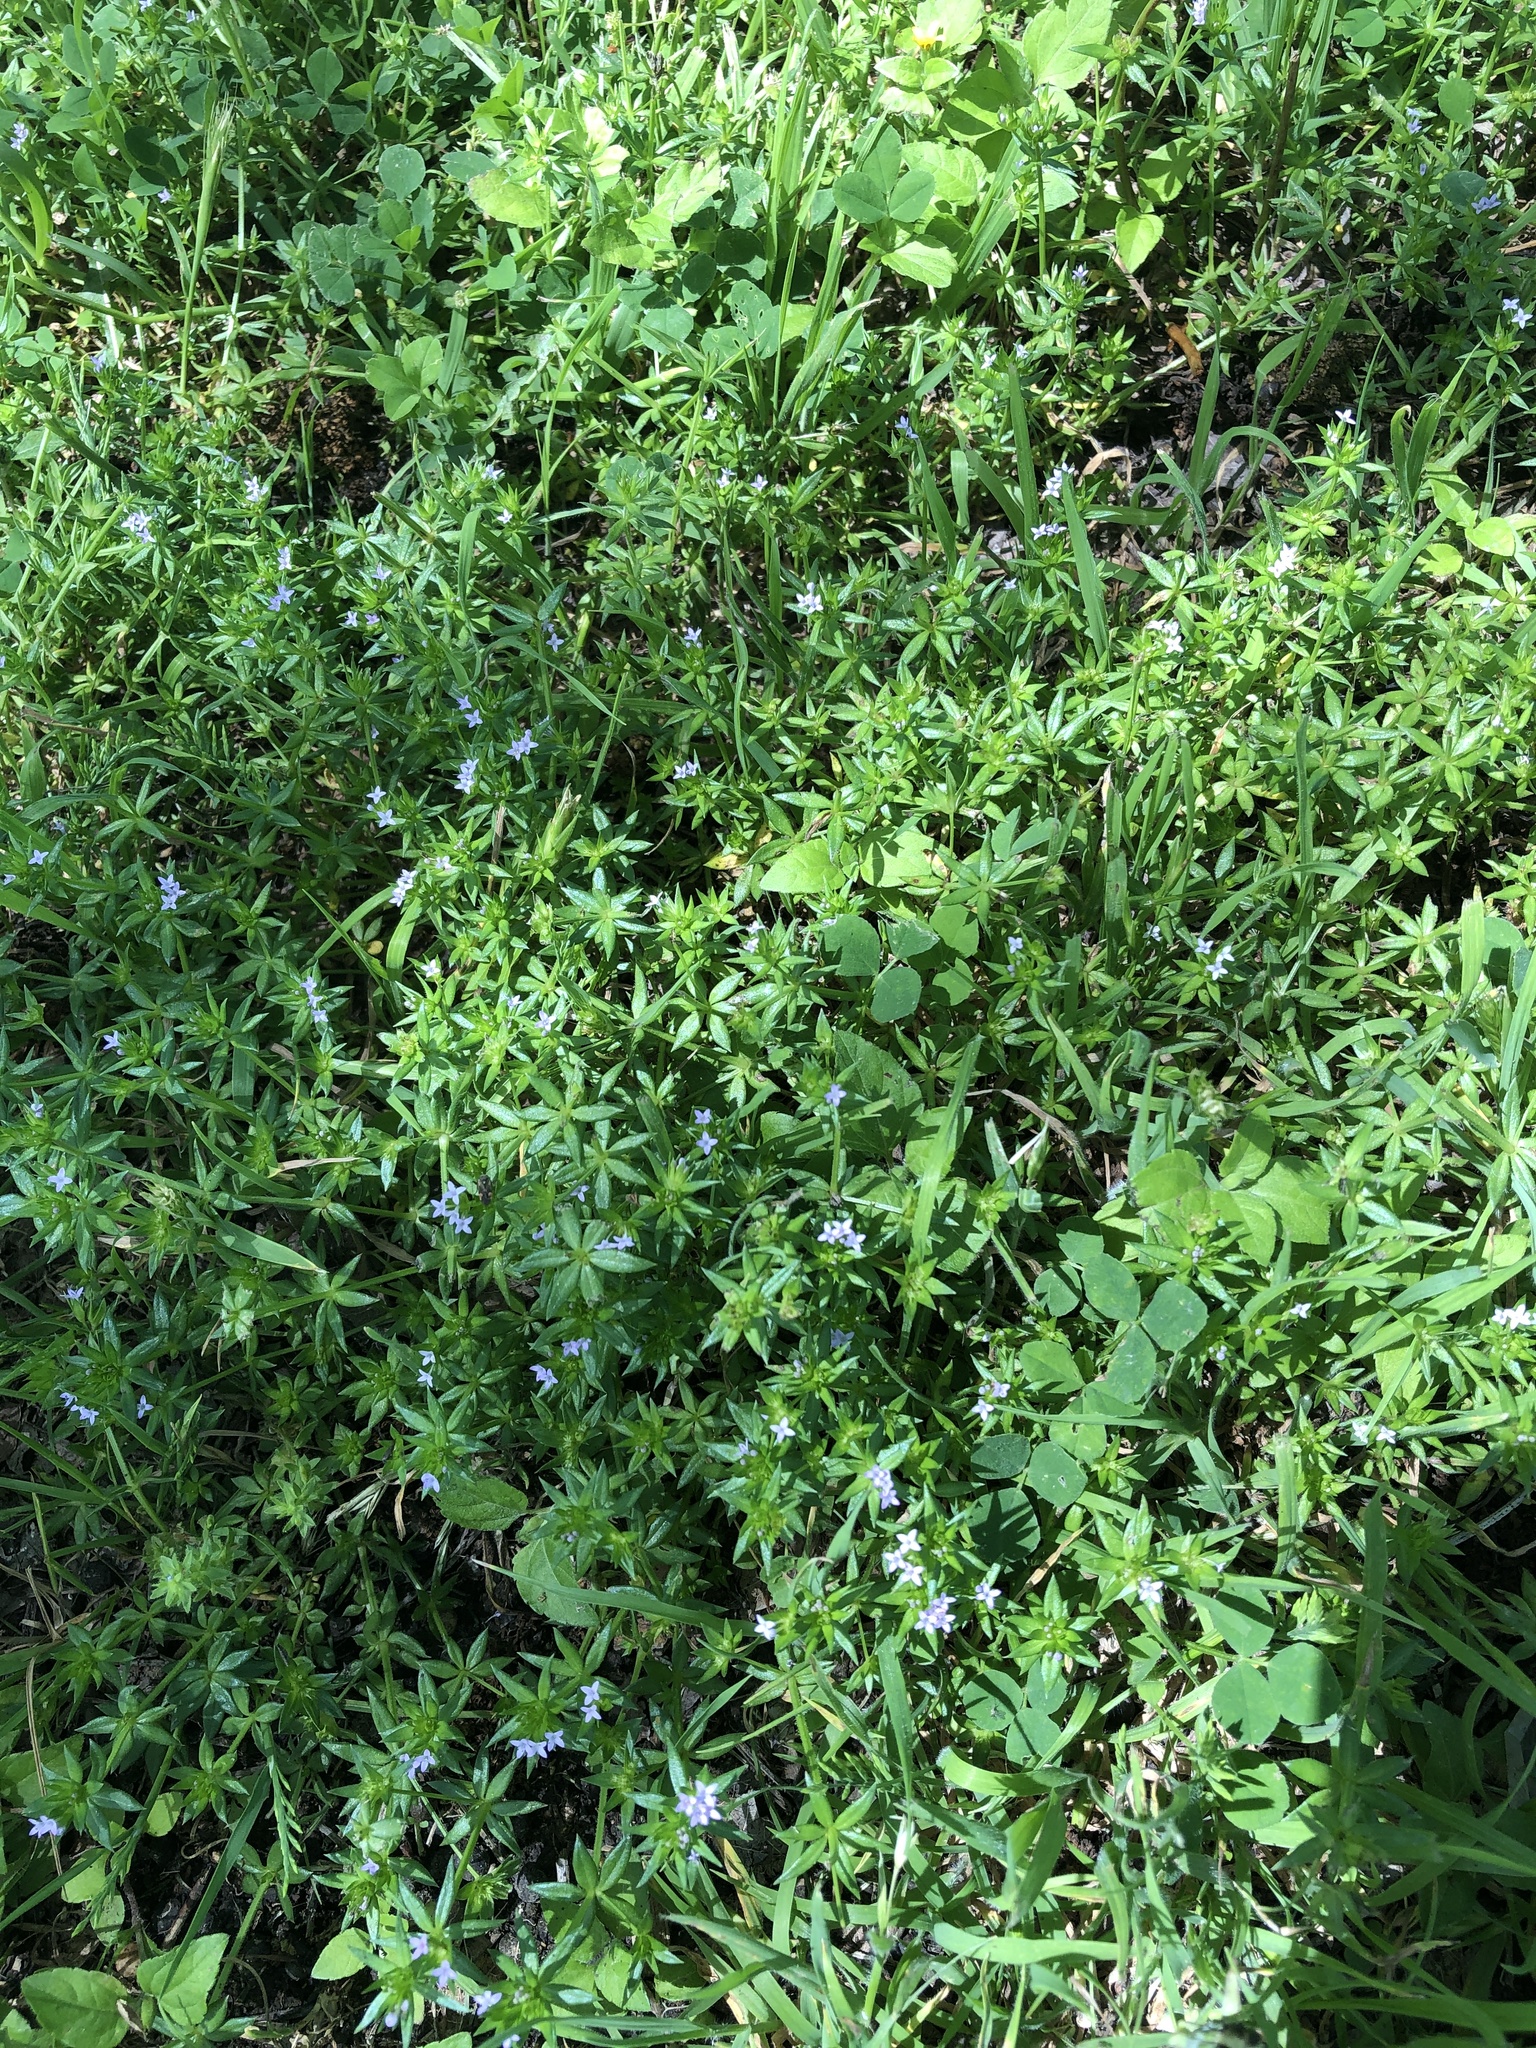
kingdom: Plantae
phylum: Tracheophyta
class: Magnoliopsida
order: Gentianales
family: Rubiaceae
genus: Sherardia
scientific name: Sherardia arvensis
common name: Field madder
